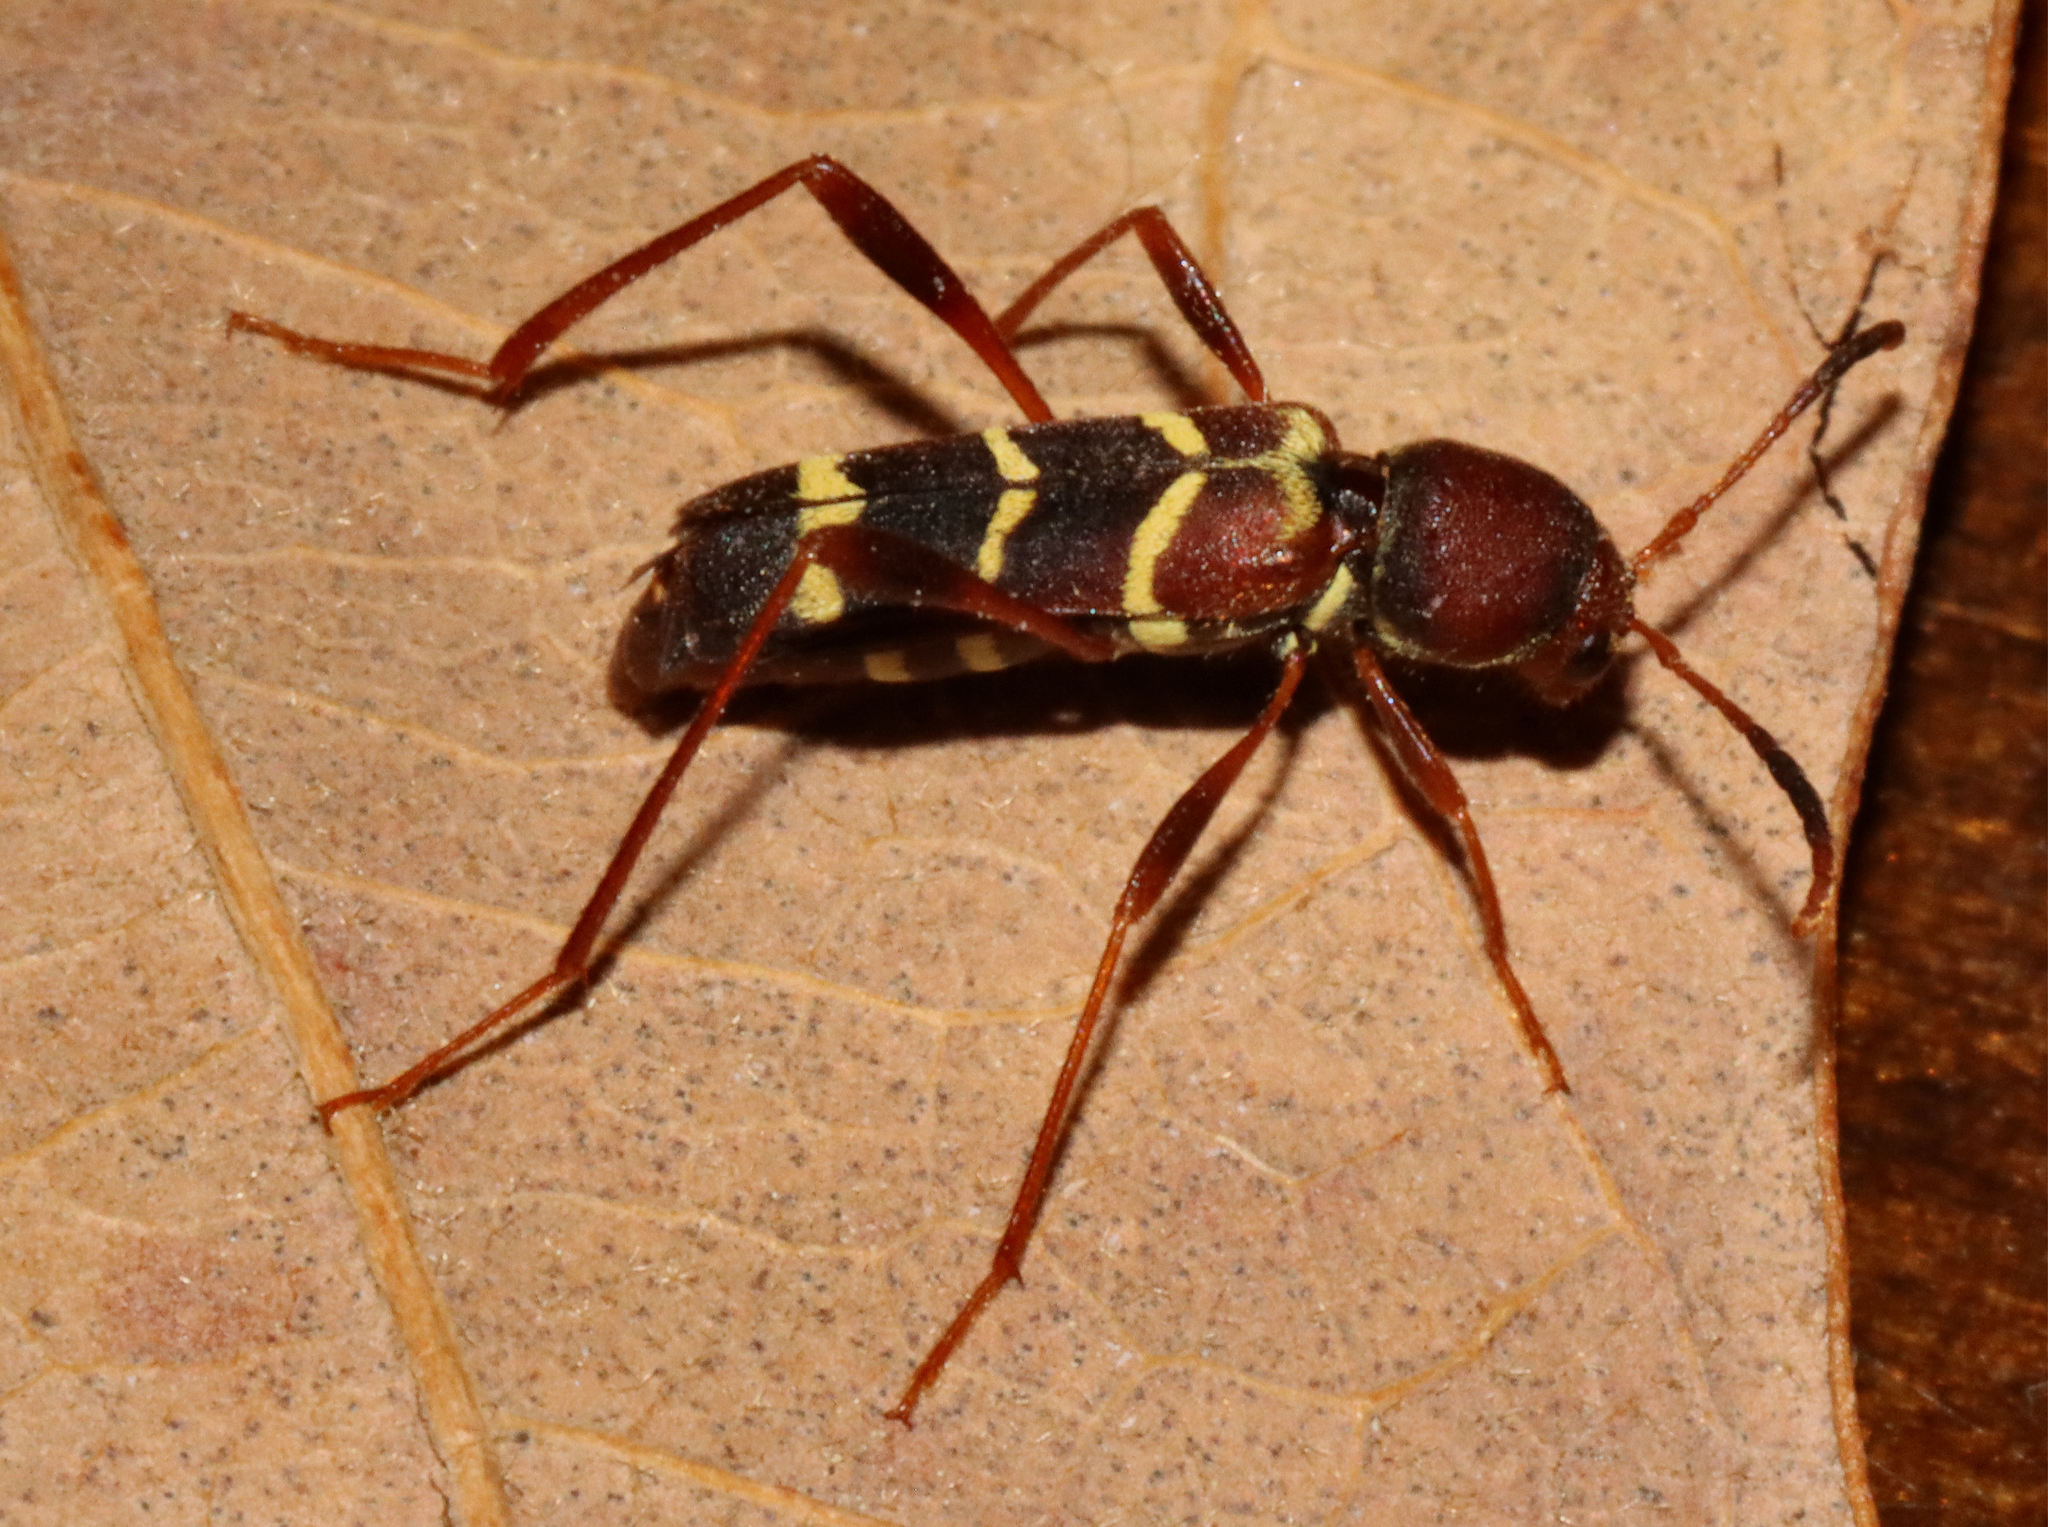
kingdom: Animalia
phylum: Arthropoda
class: Insecta
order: Coleoptera
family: Cerambycidae
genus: Neoclytus
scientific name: Neoclytus acuminatus
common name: Read-headed ash borer
